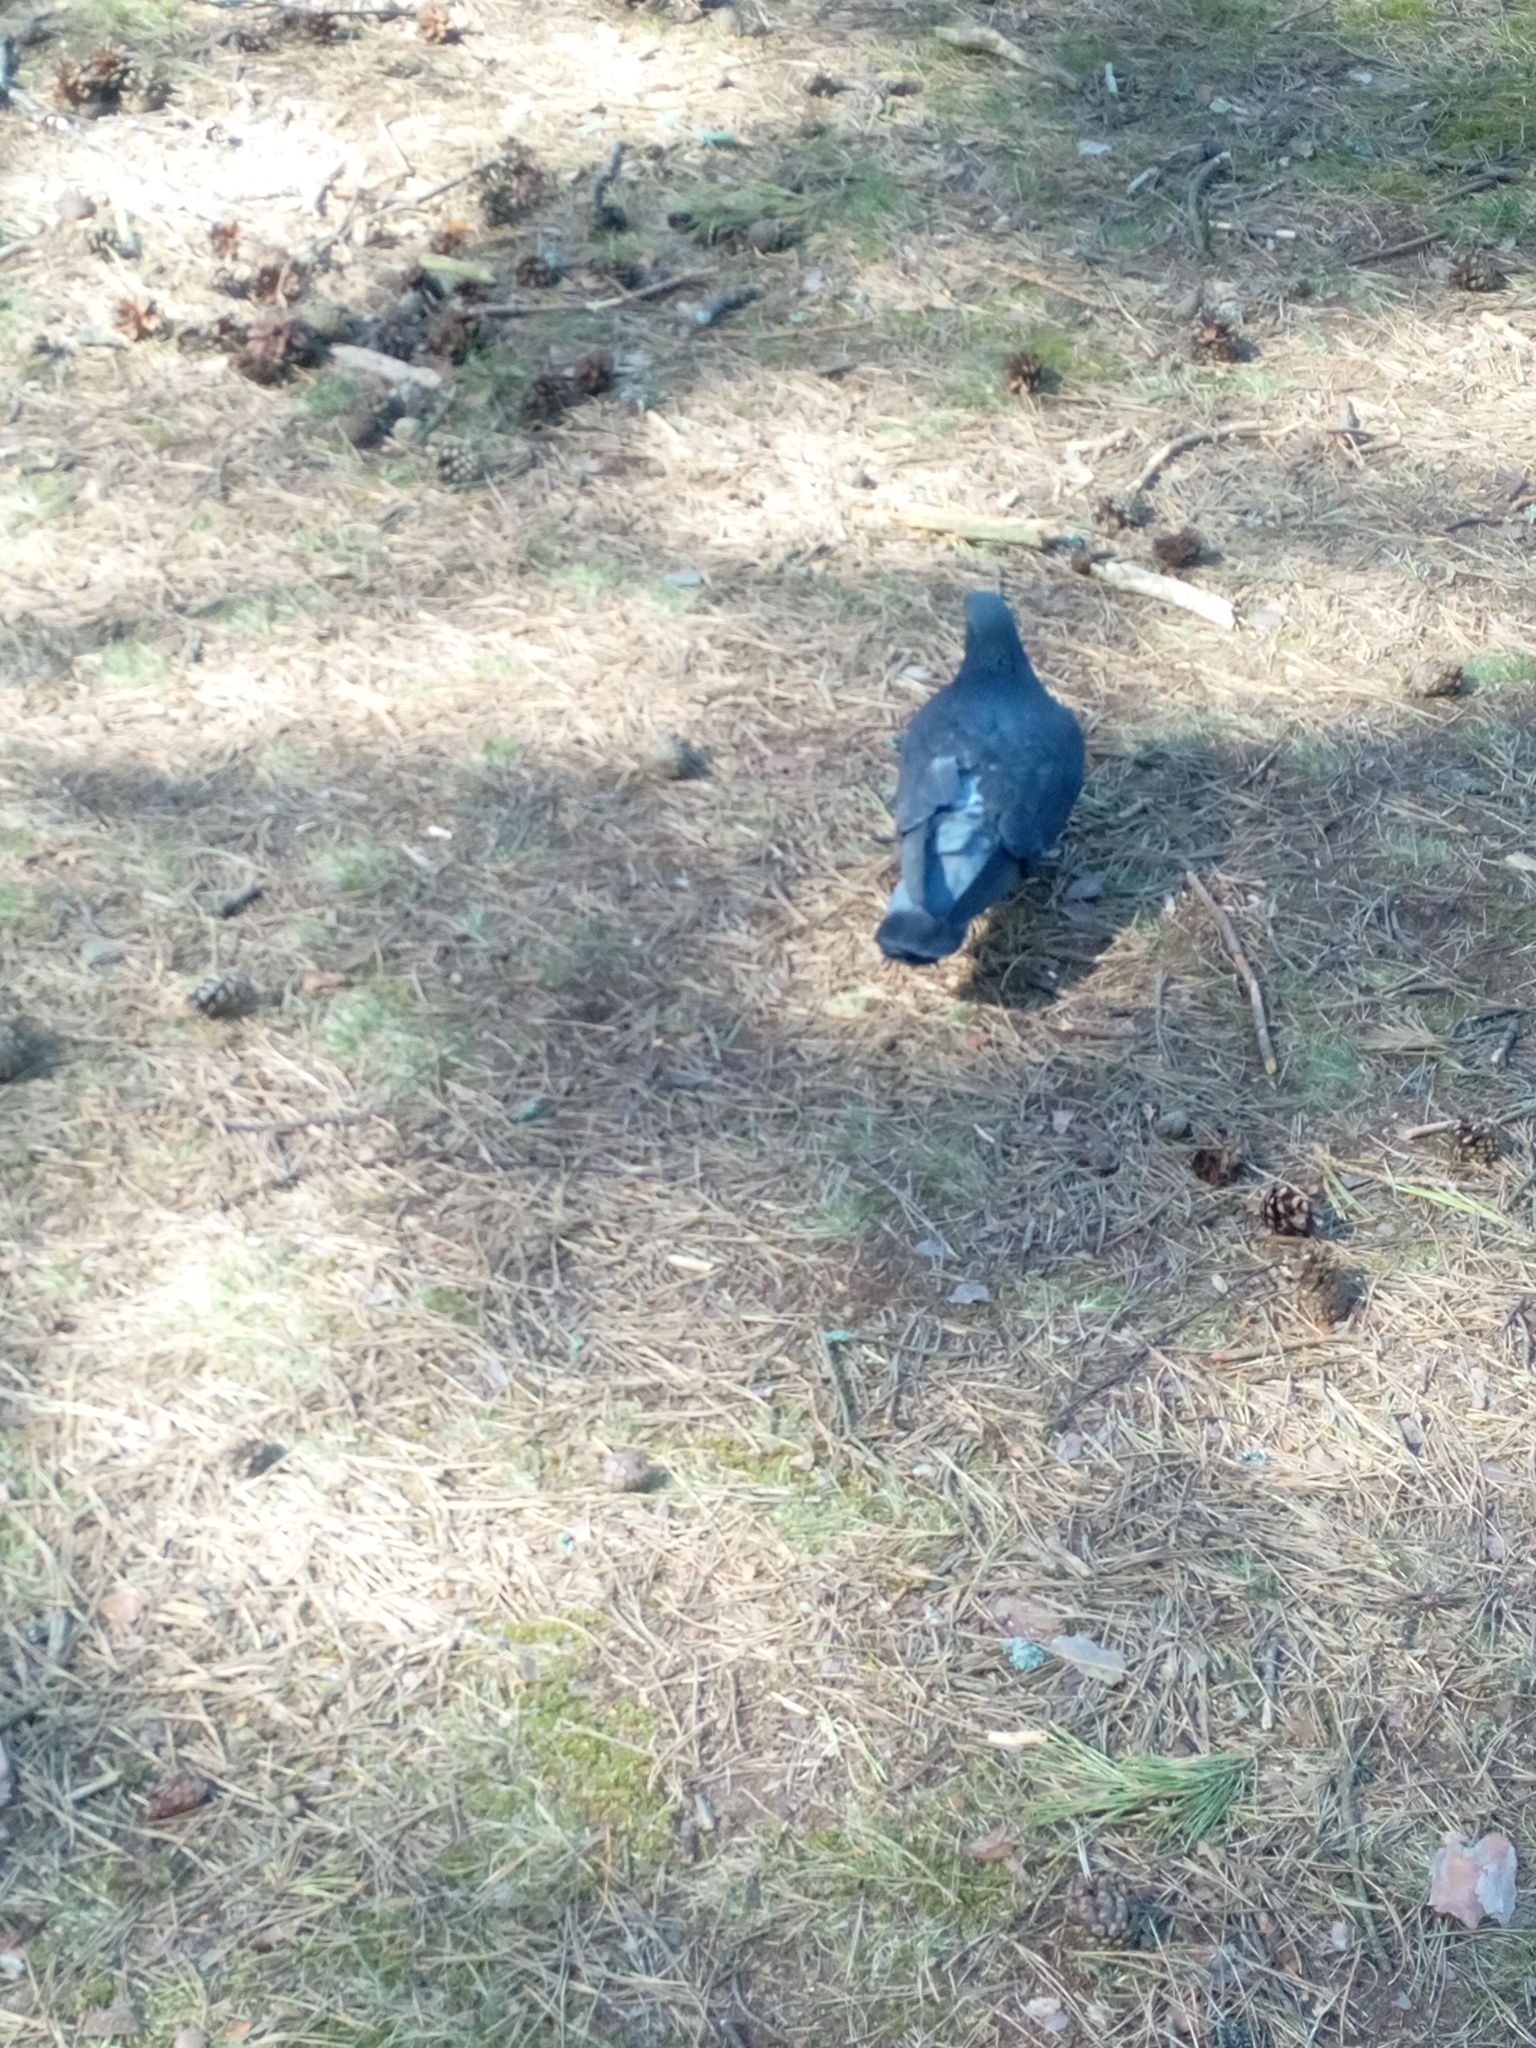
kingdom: Animalia
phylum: Chordata
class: Aves
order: Columbiformes
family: Columbidae
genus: Columba
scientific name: Columba livia
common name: Rock pigeon
